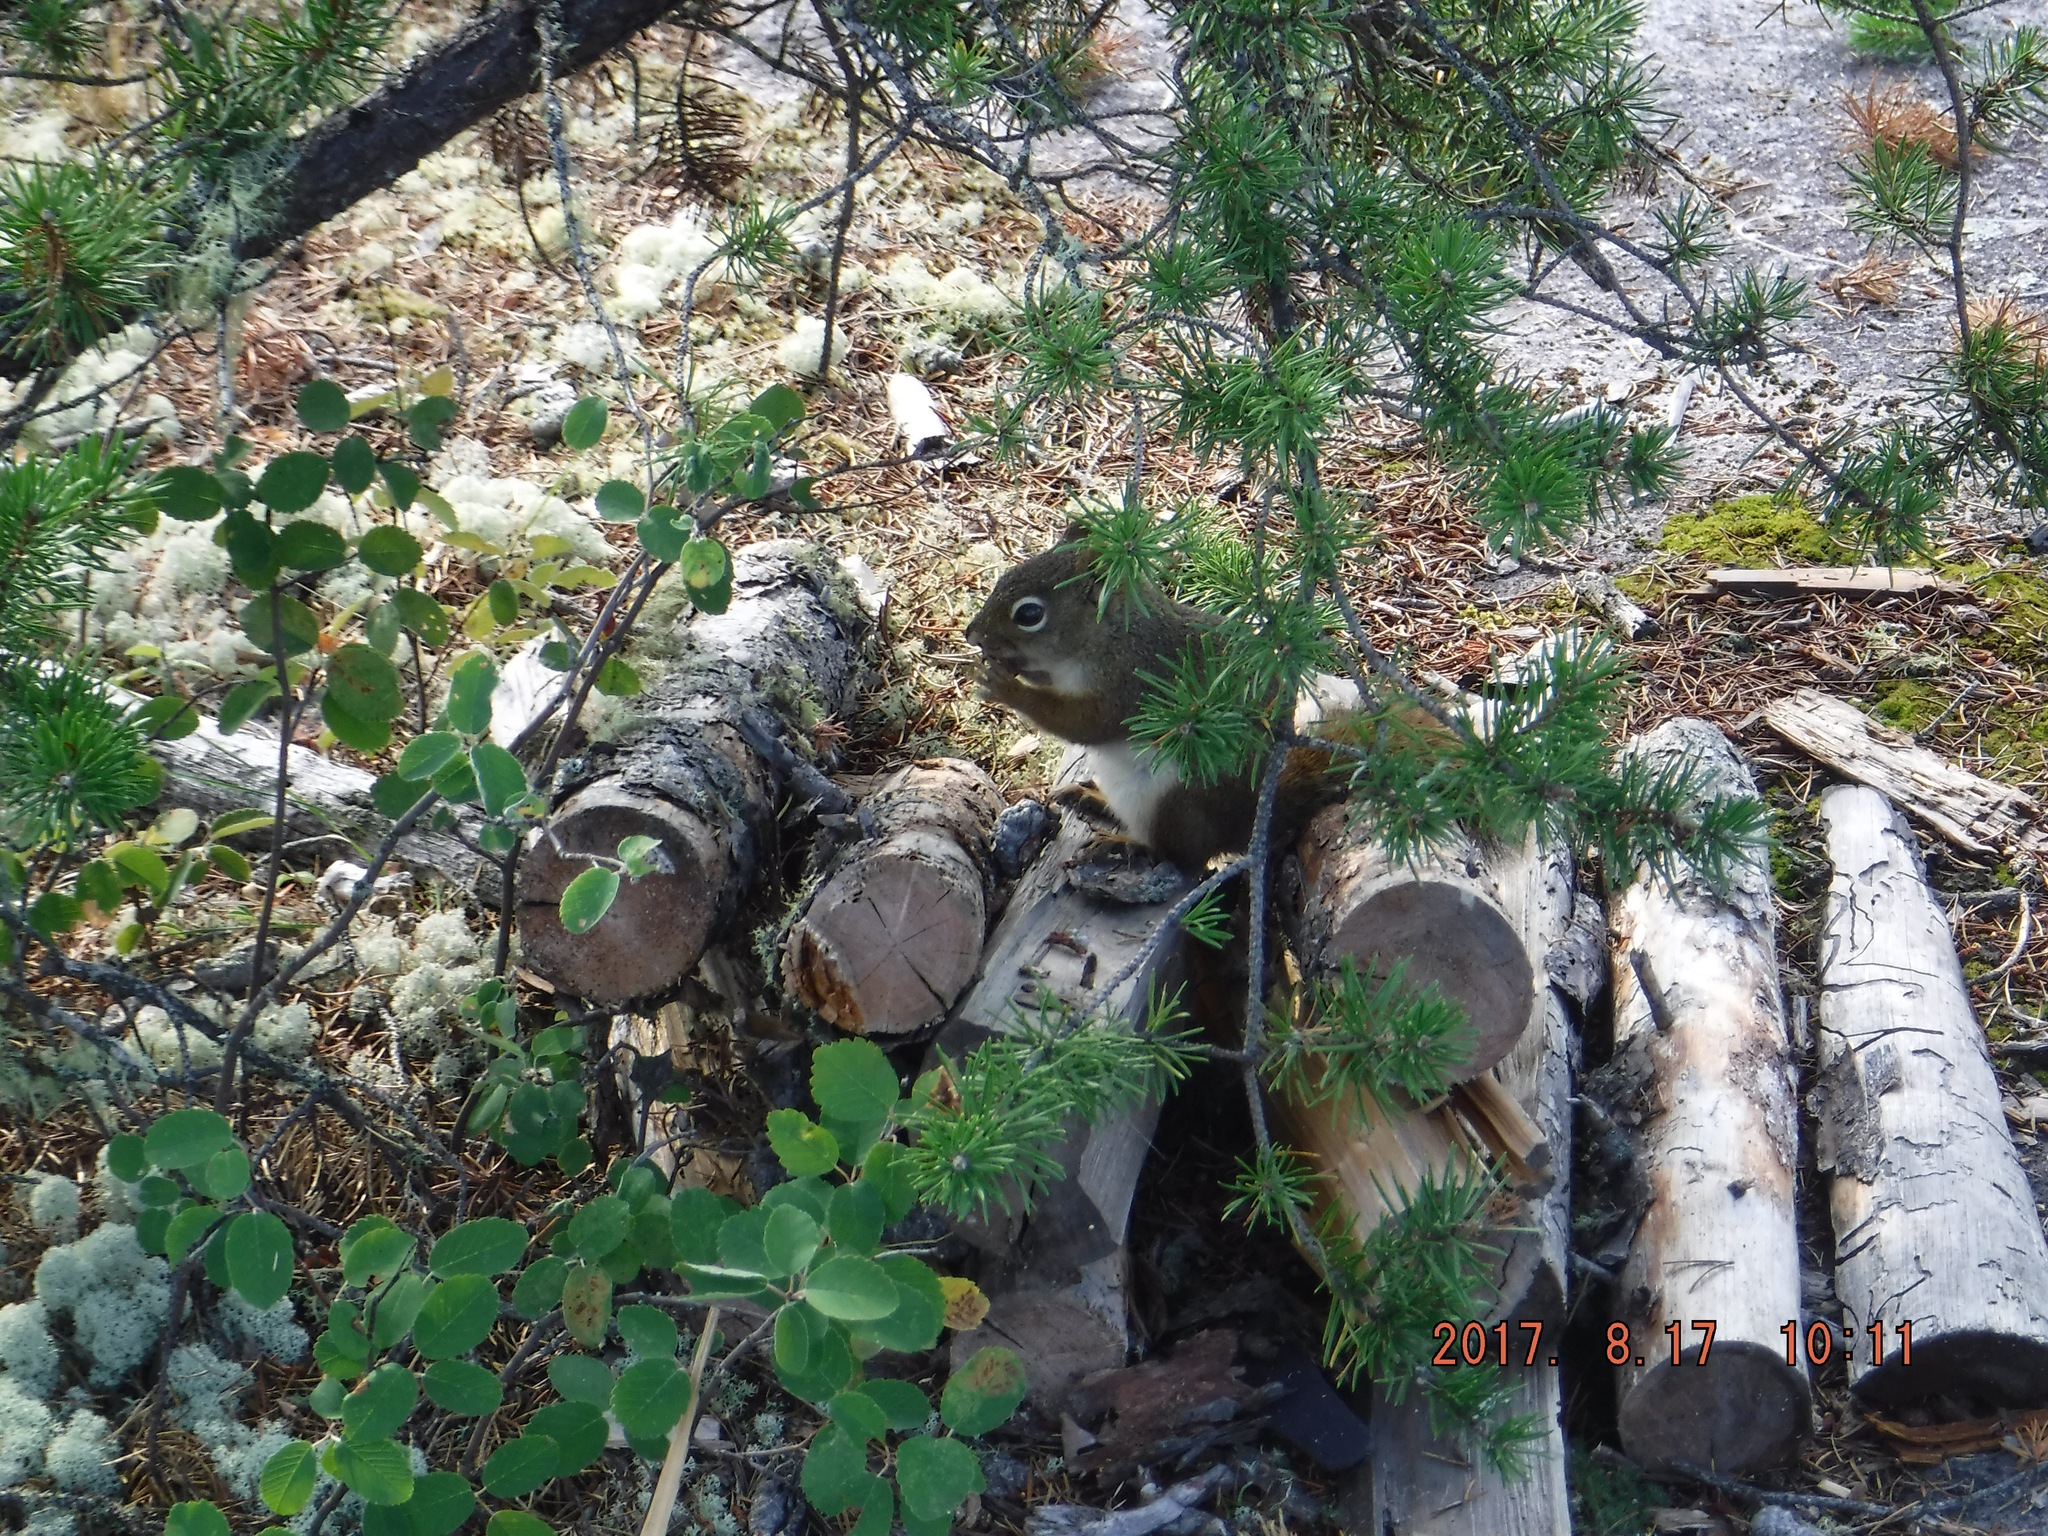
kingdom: Animalia
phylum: Chordata
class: Mammalia
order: Rodentia
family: Sciuridae
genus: Tamiasciurus
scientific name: Tamiasciurus hudsonicus
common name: Red squirrel
